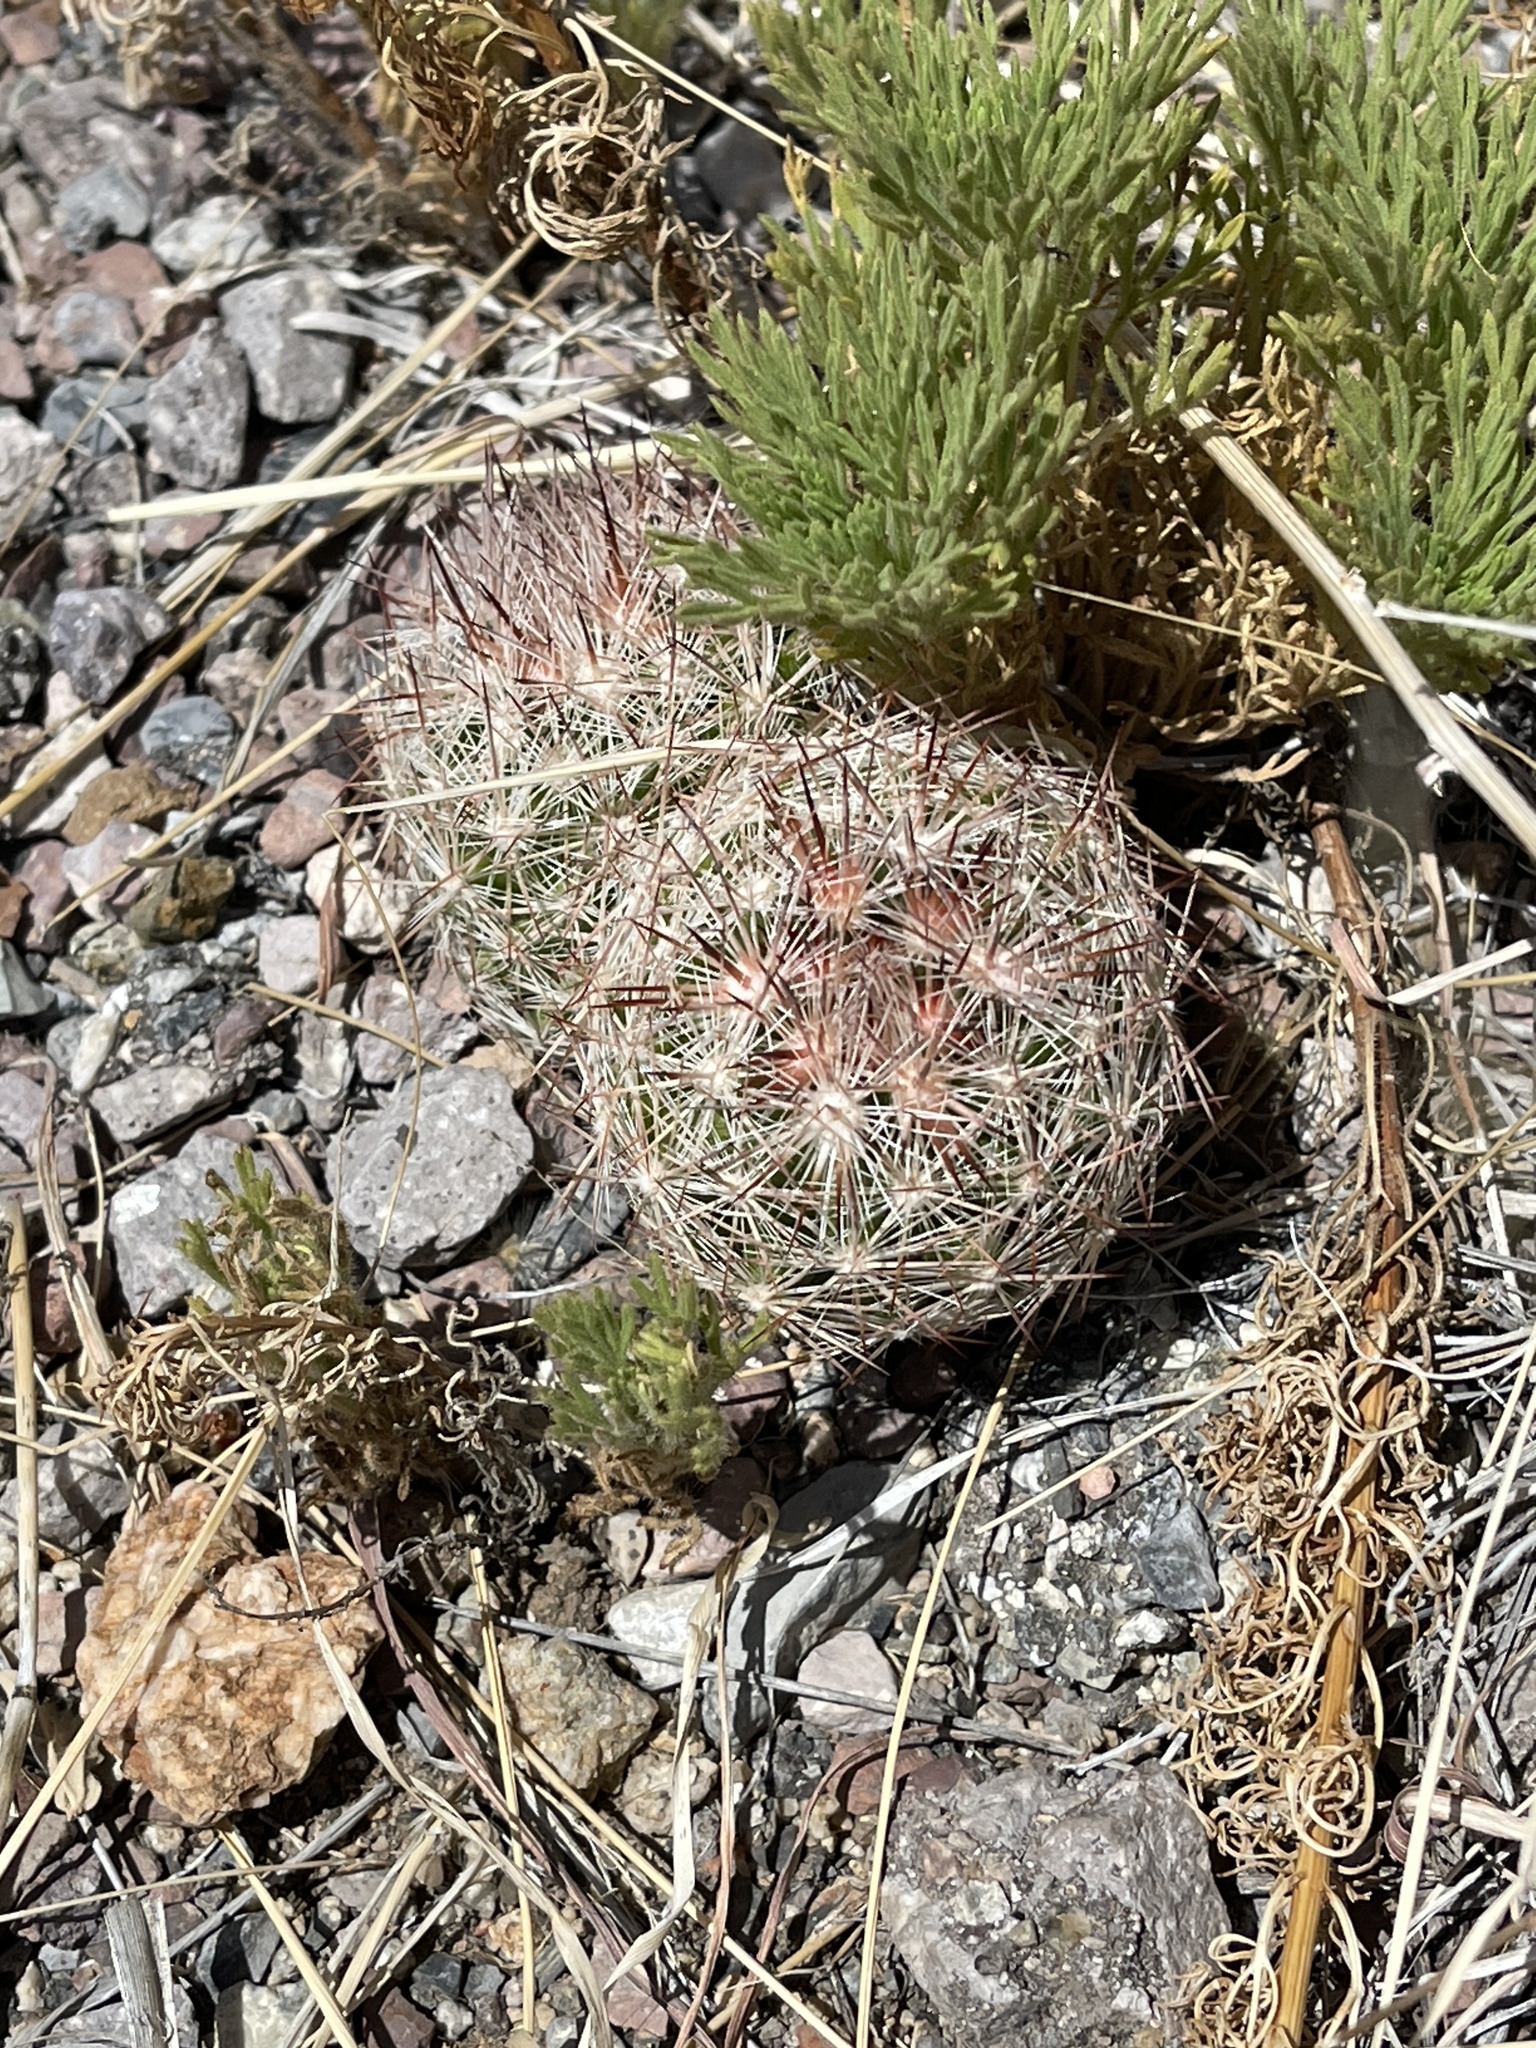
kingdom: Plantae
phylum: Tracheophyta
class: Magnoliopsida
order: Caryophyllales
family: Cactaceae
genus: Pelecyphora
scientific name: Pelecyphora vivipara
